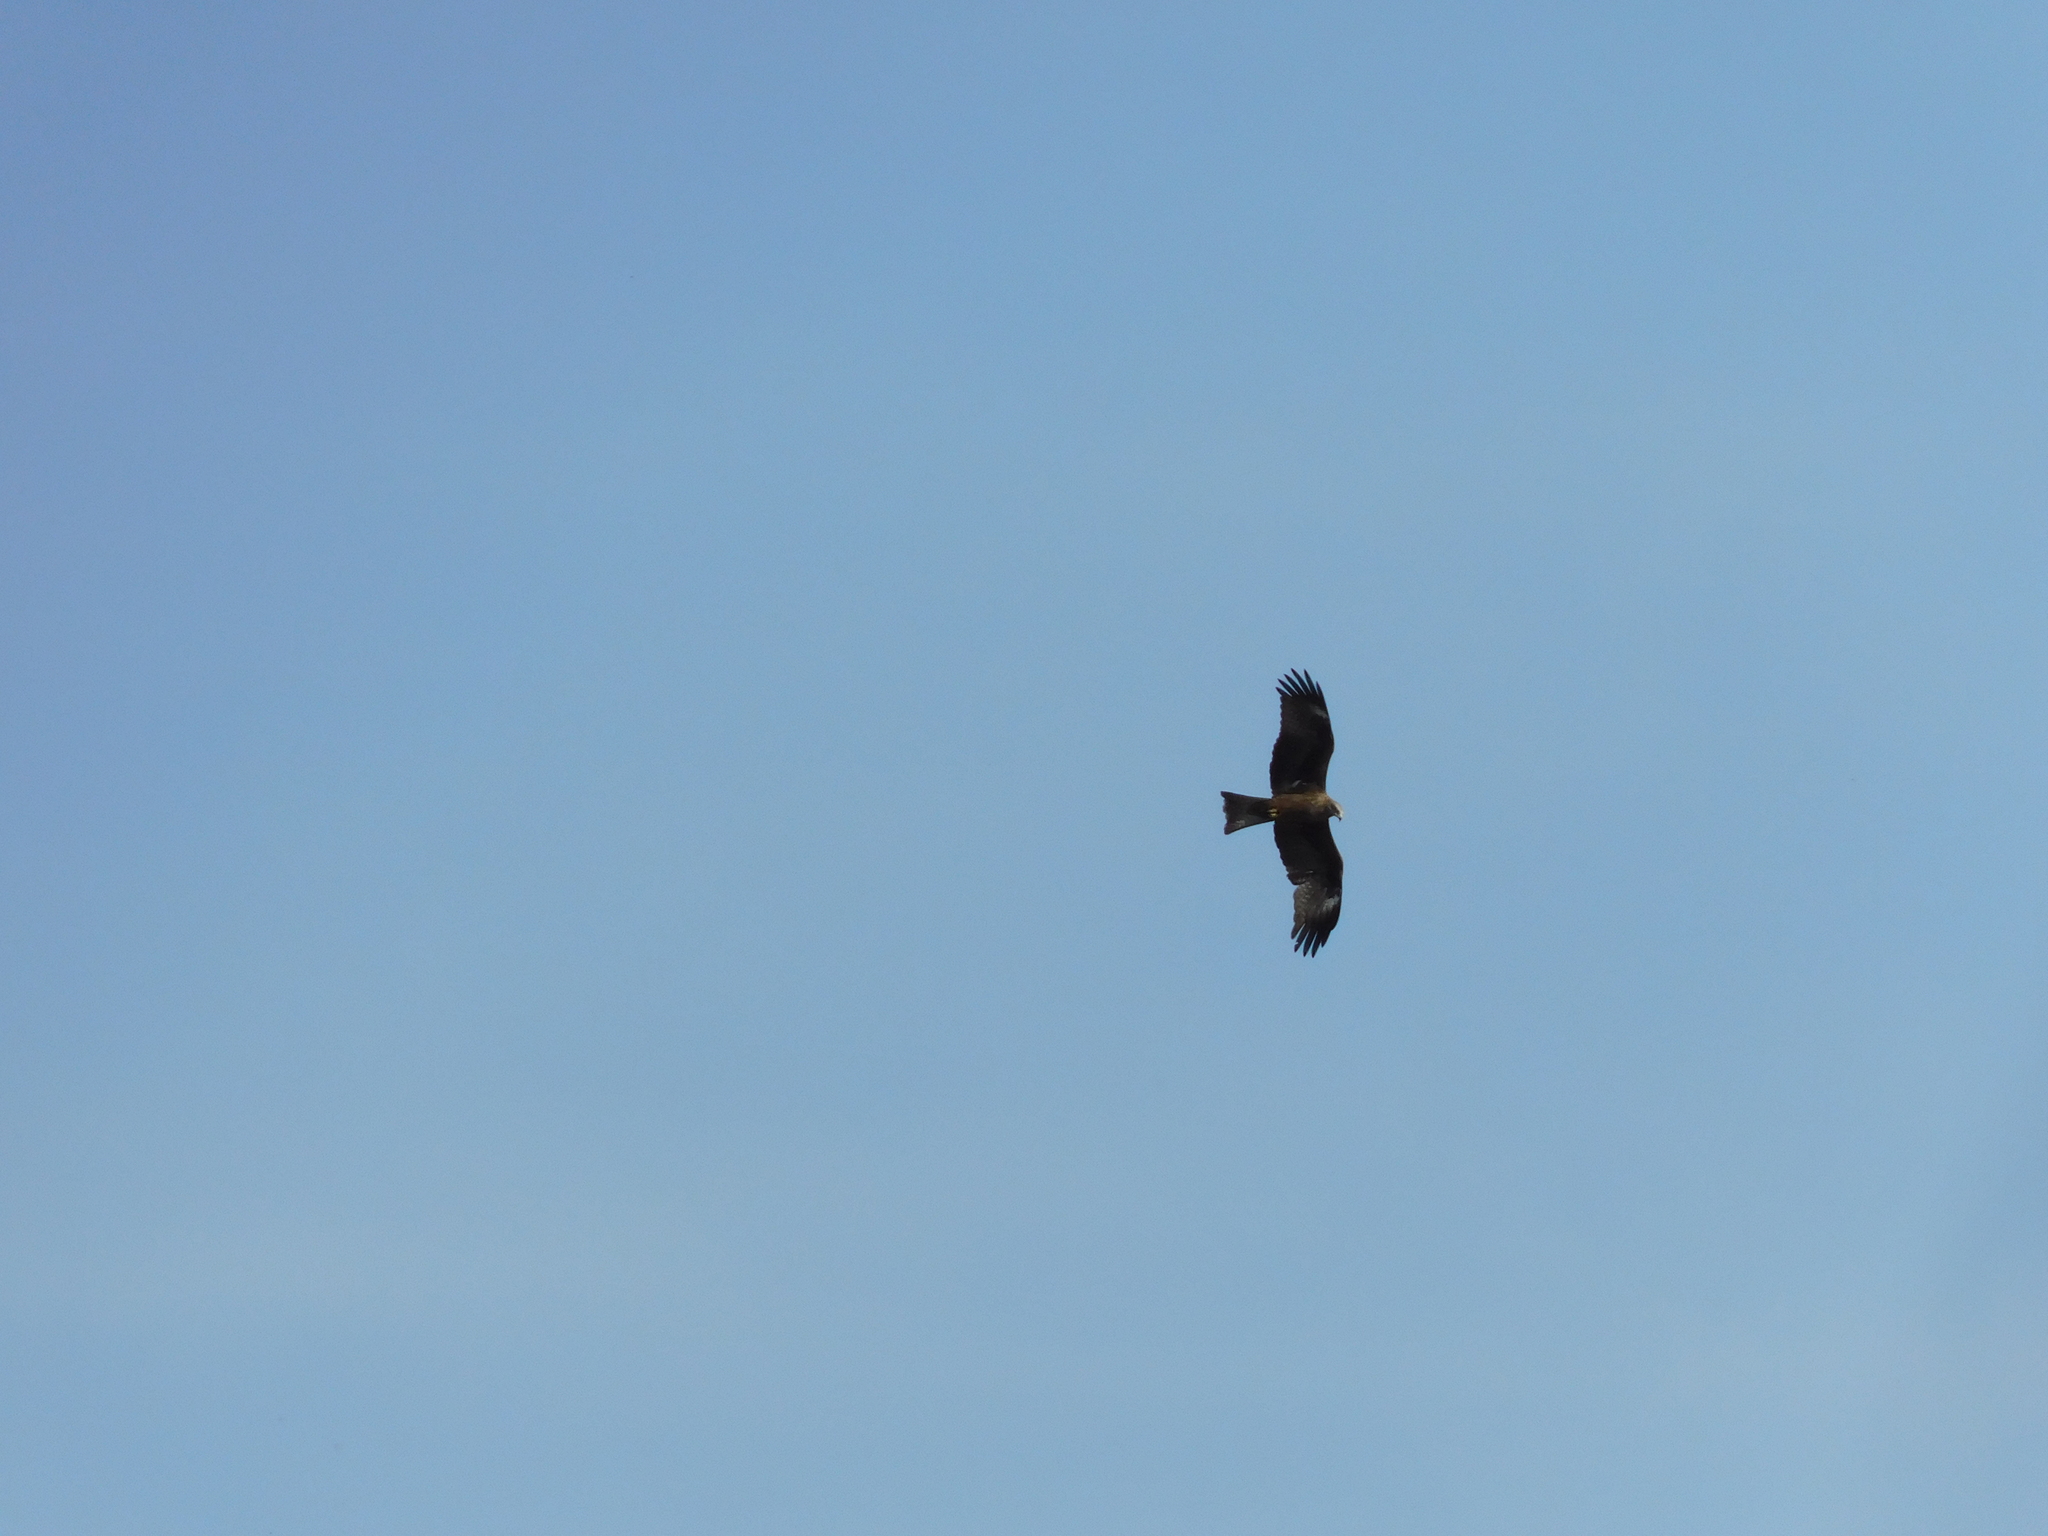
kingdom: Animalia
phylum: Chordata
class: Aves
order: Accipitriformes
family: Accipitridae
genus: Milvus
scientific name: Milvus migrans
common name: Black kite
